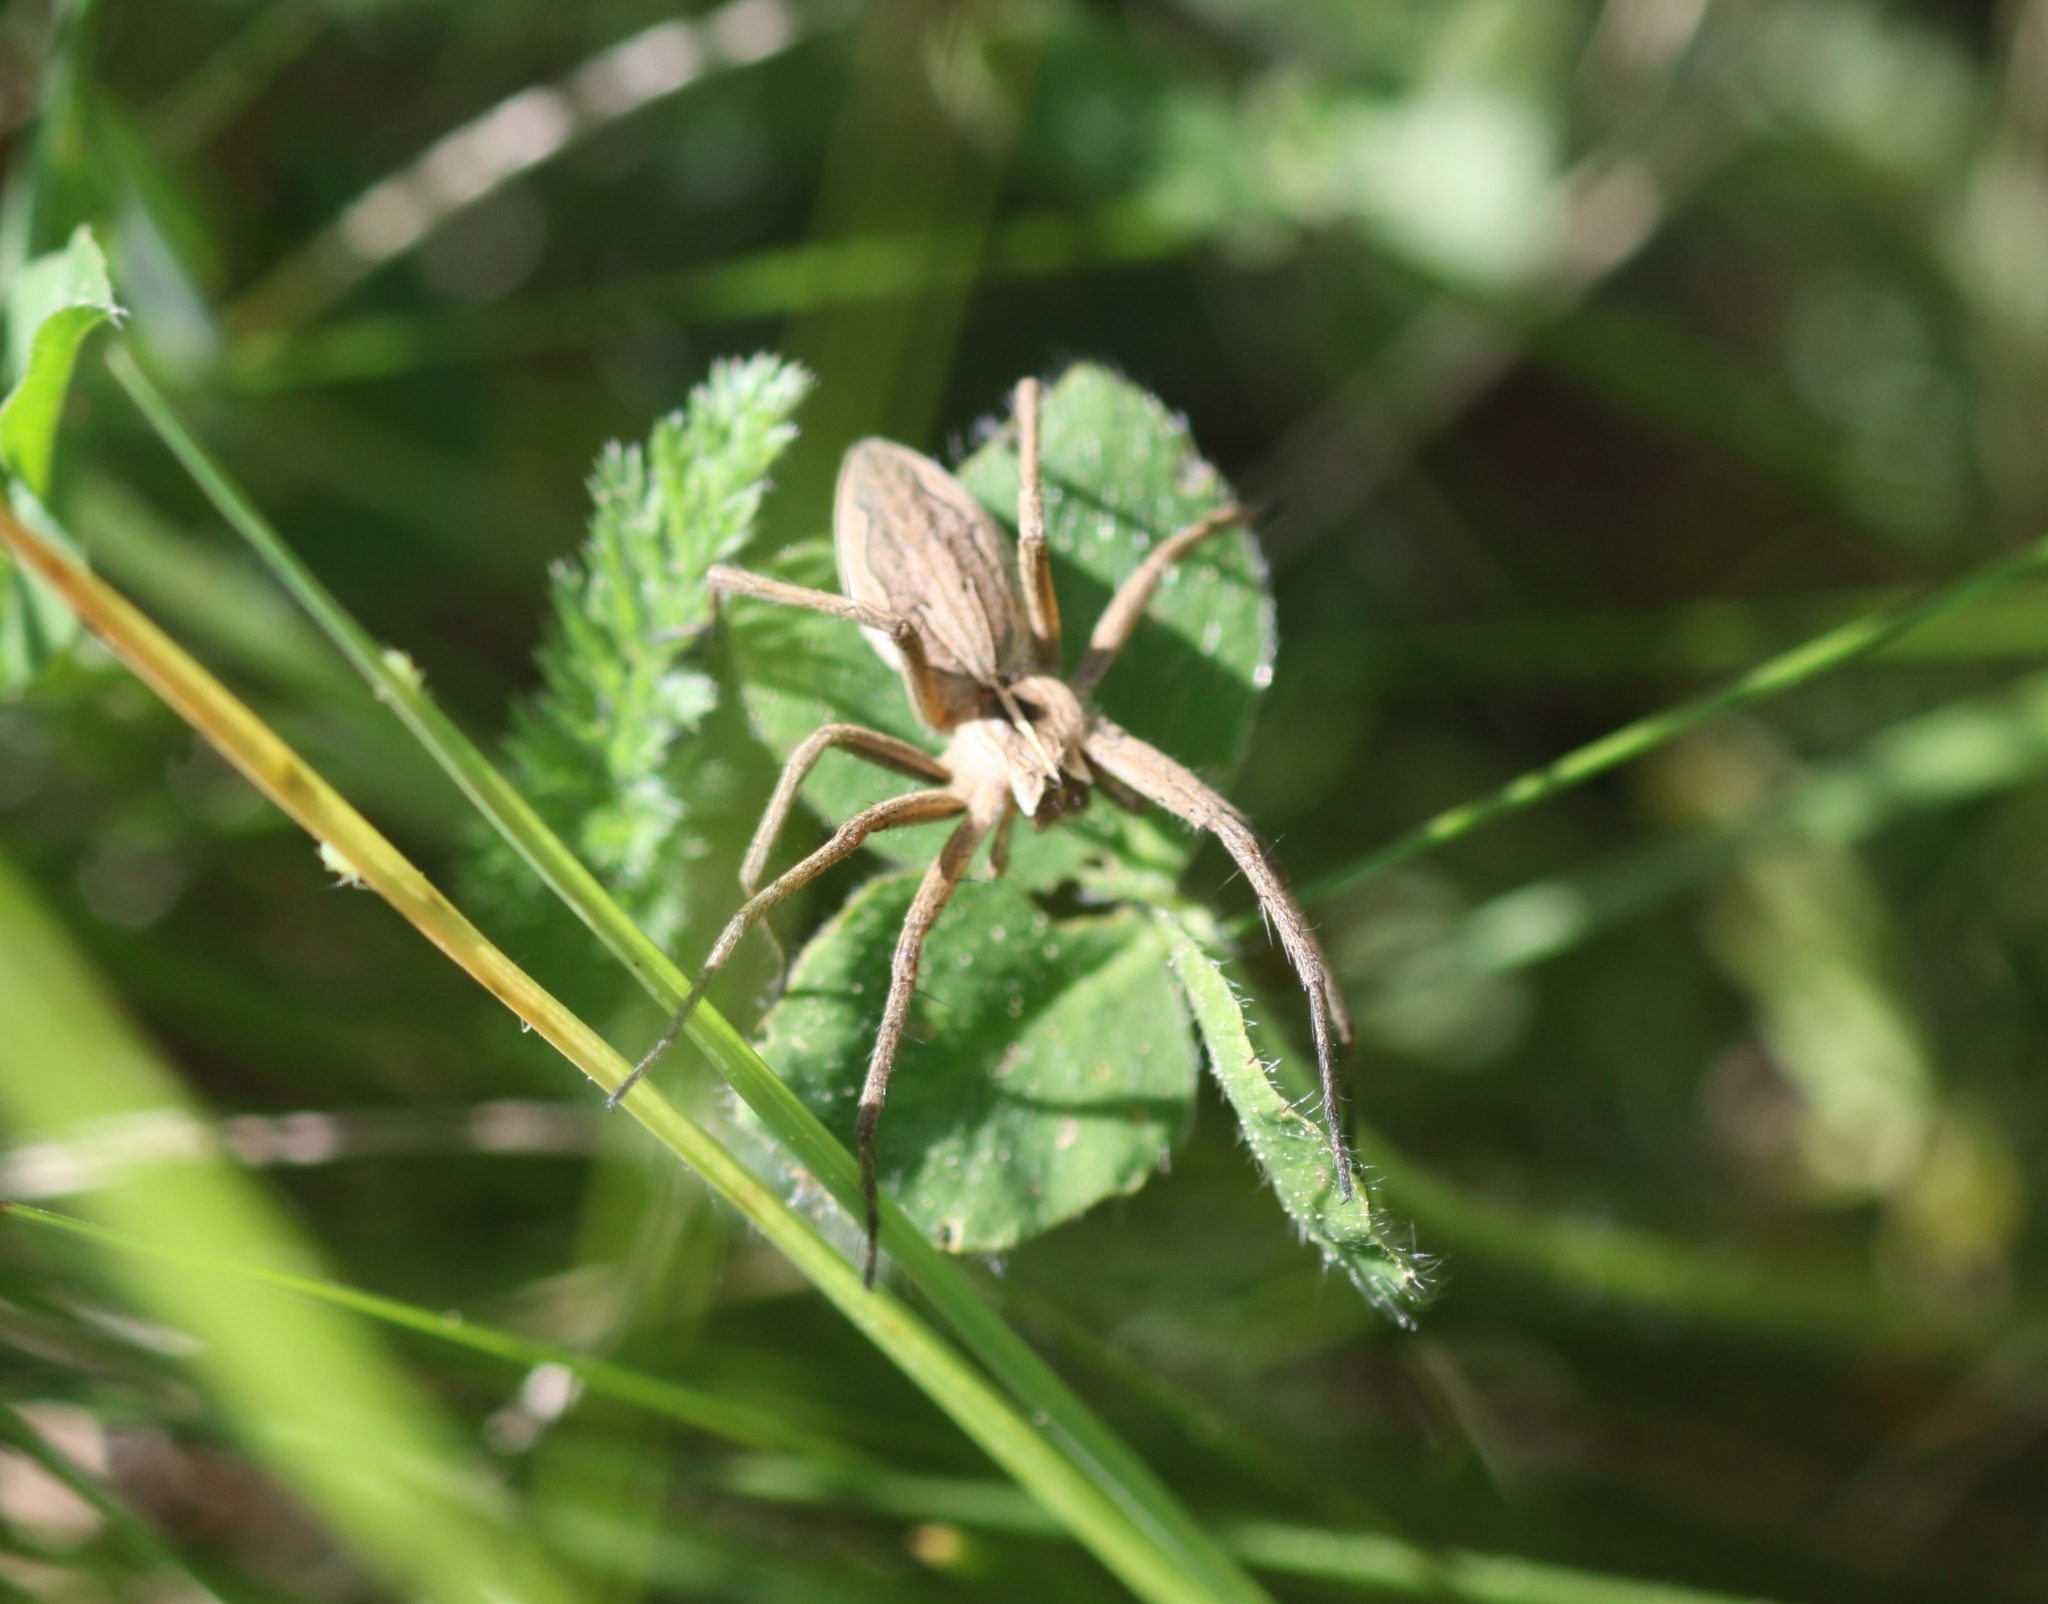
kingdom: Animalia
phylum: Arthropoda
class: Arachnida
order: Araneae
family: Pisauridae
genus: Pisaura
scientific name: Pisaura mirabilis
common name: Tent spider
